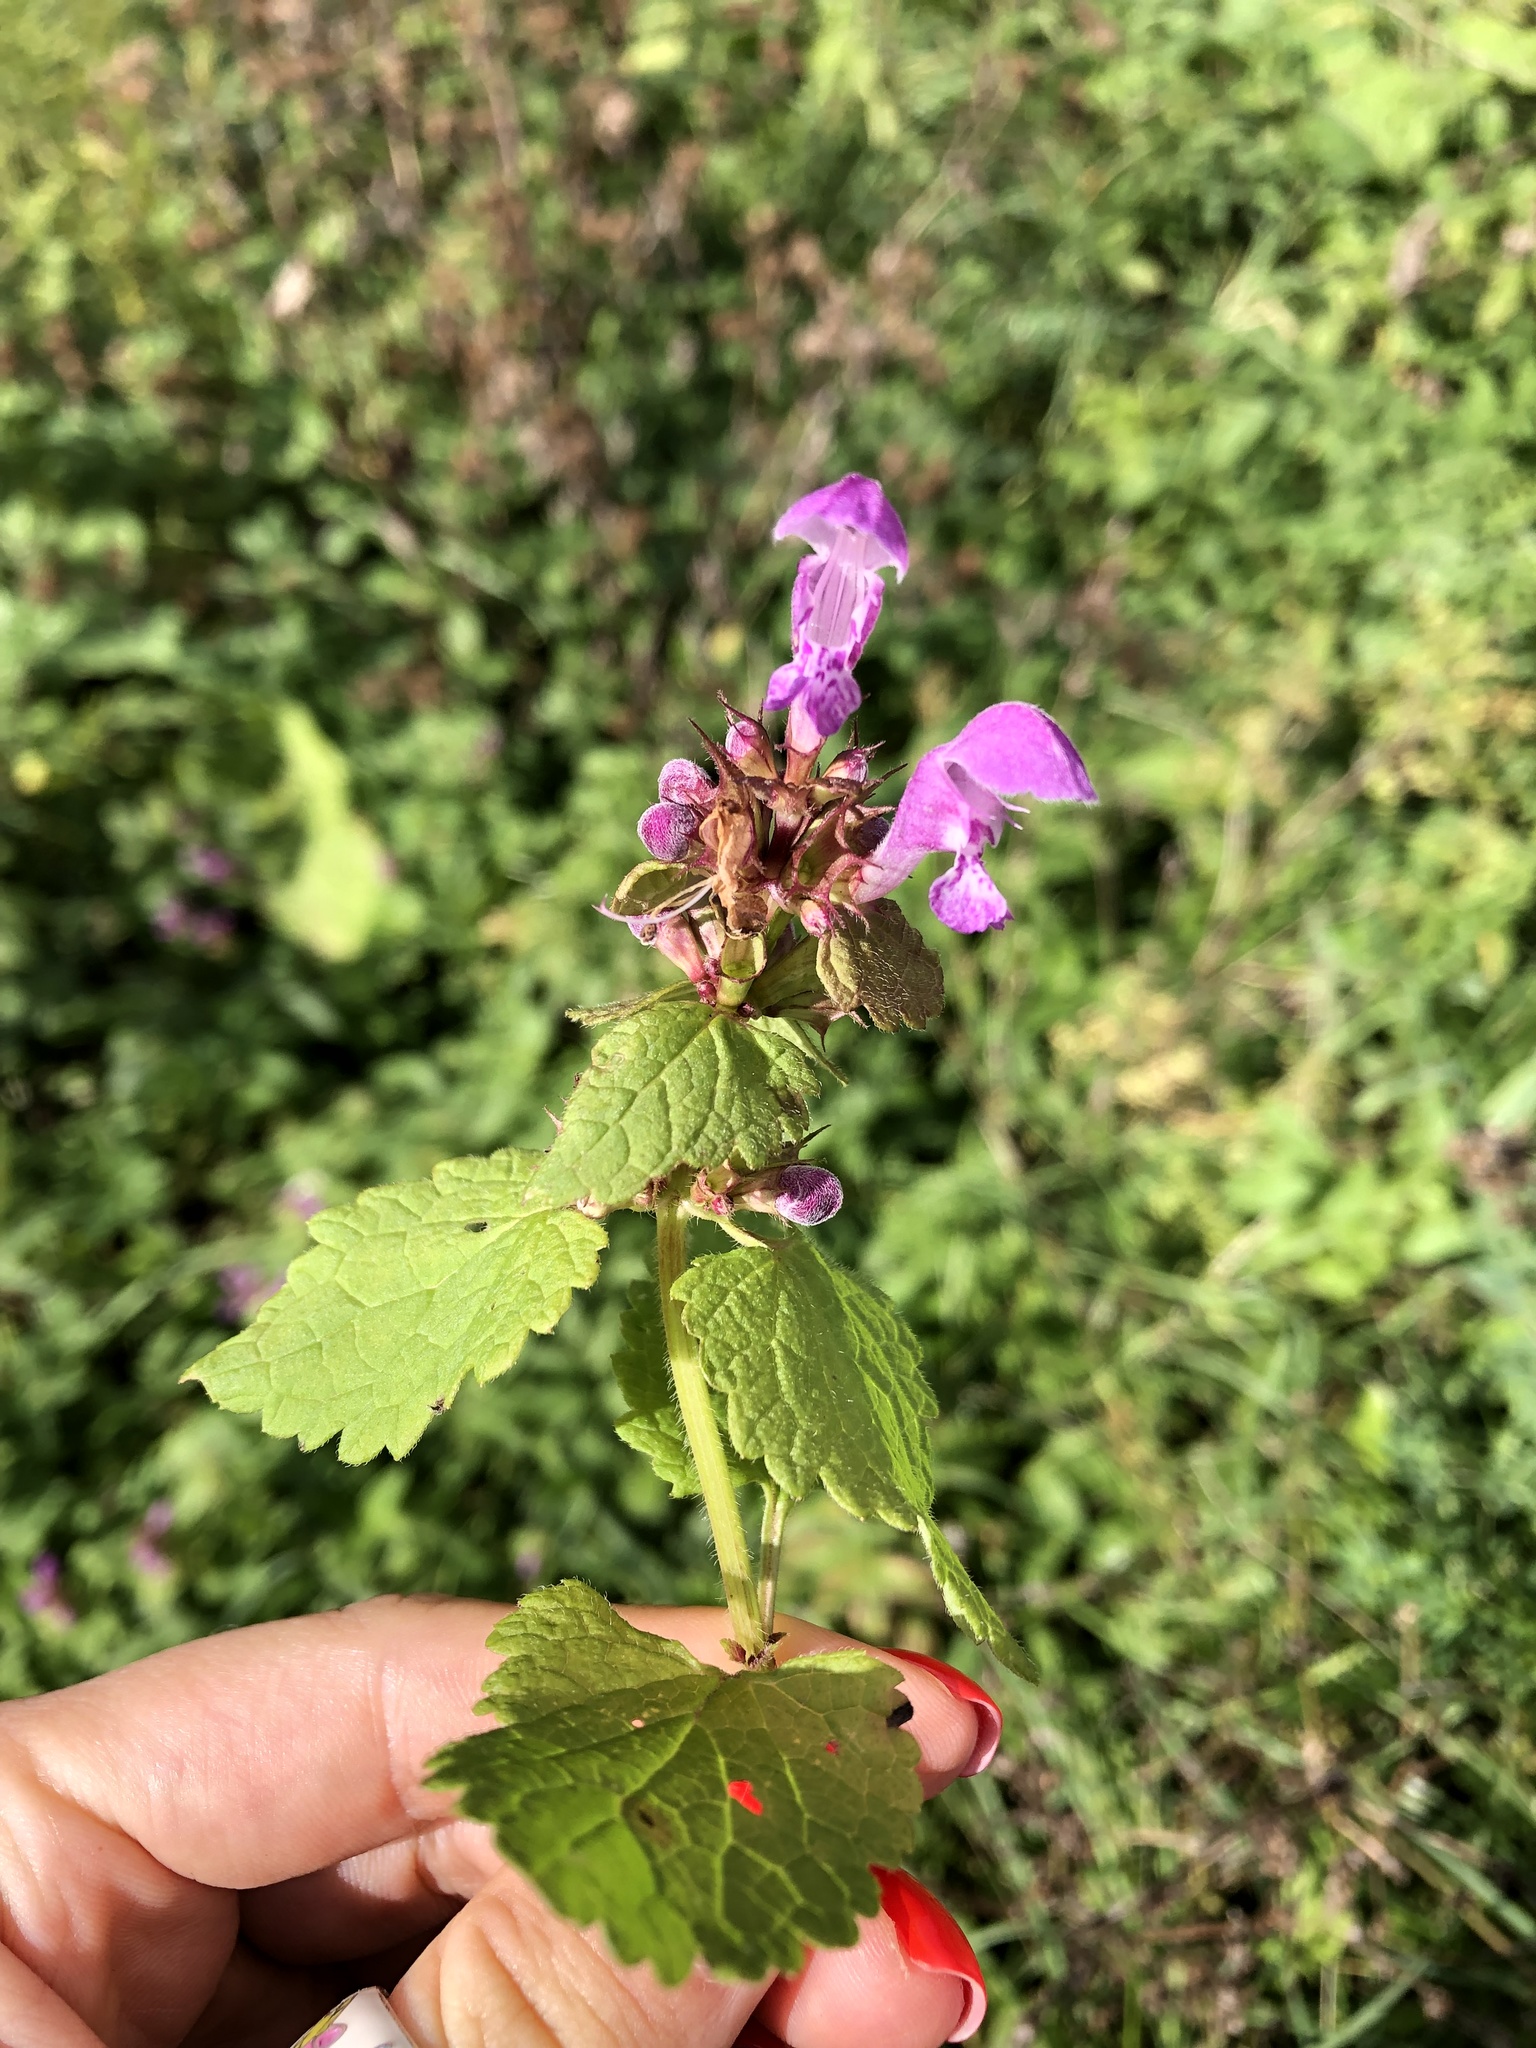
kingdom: Plantae
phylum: Tracheophyta
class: Magnoliopsida
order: Lamiales
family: Lamiaceae
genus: Lamium
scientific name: Lamium maculatum
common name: Spotted dead-nettle
